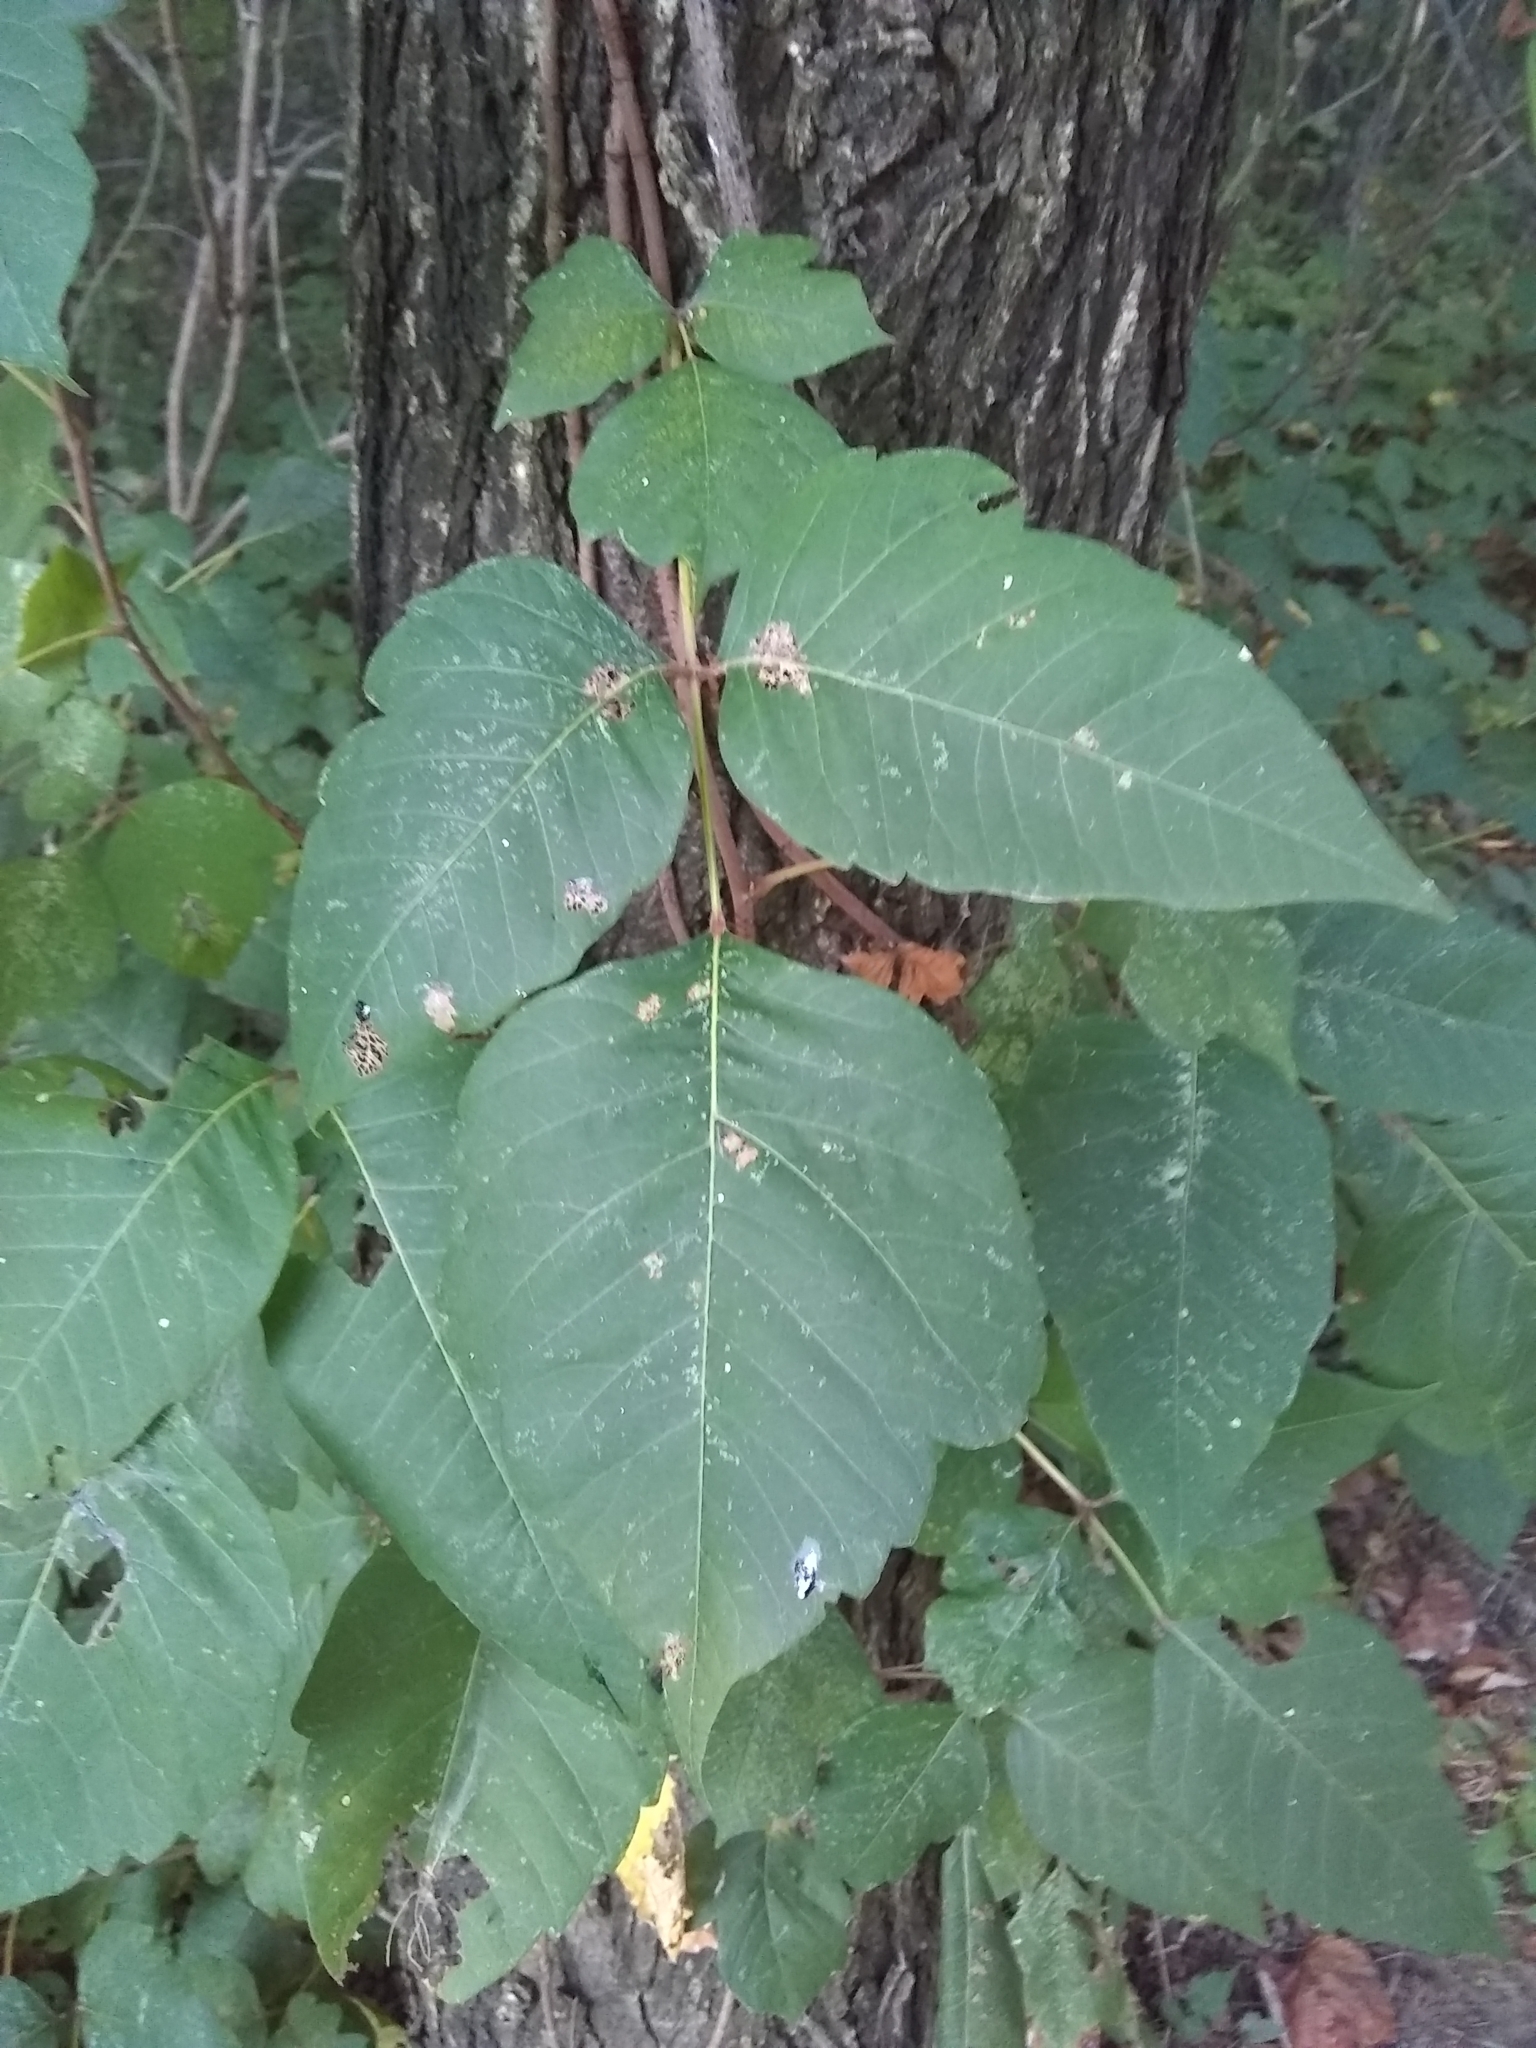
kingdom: Plantae
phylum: Tracheophyta
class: Magnoliopsida
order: Sapindales
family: Anacardiaceae
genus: Toxicodendron
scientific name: Toxicodendron radicans
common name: Poison ivy
